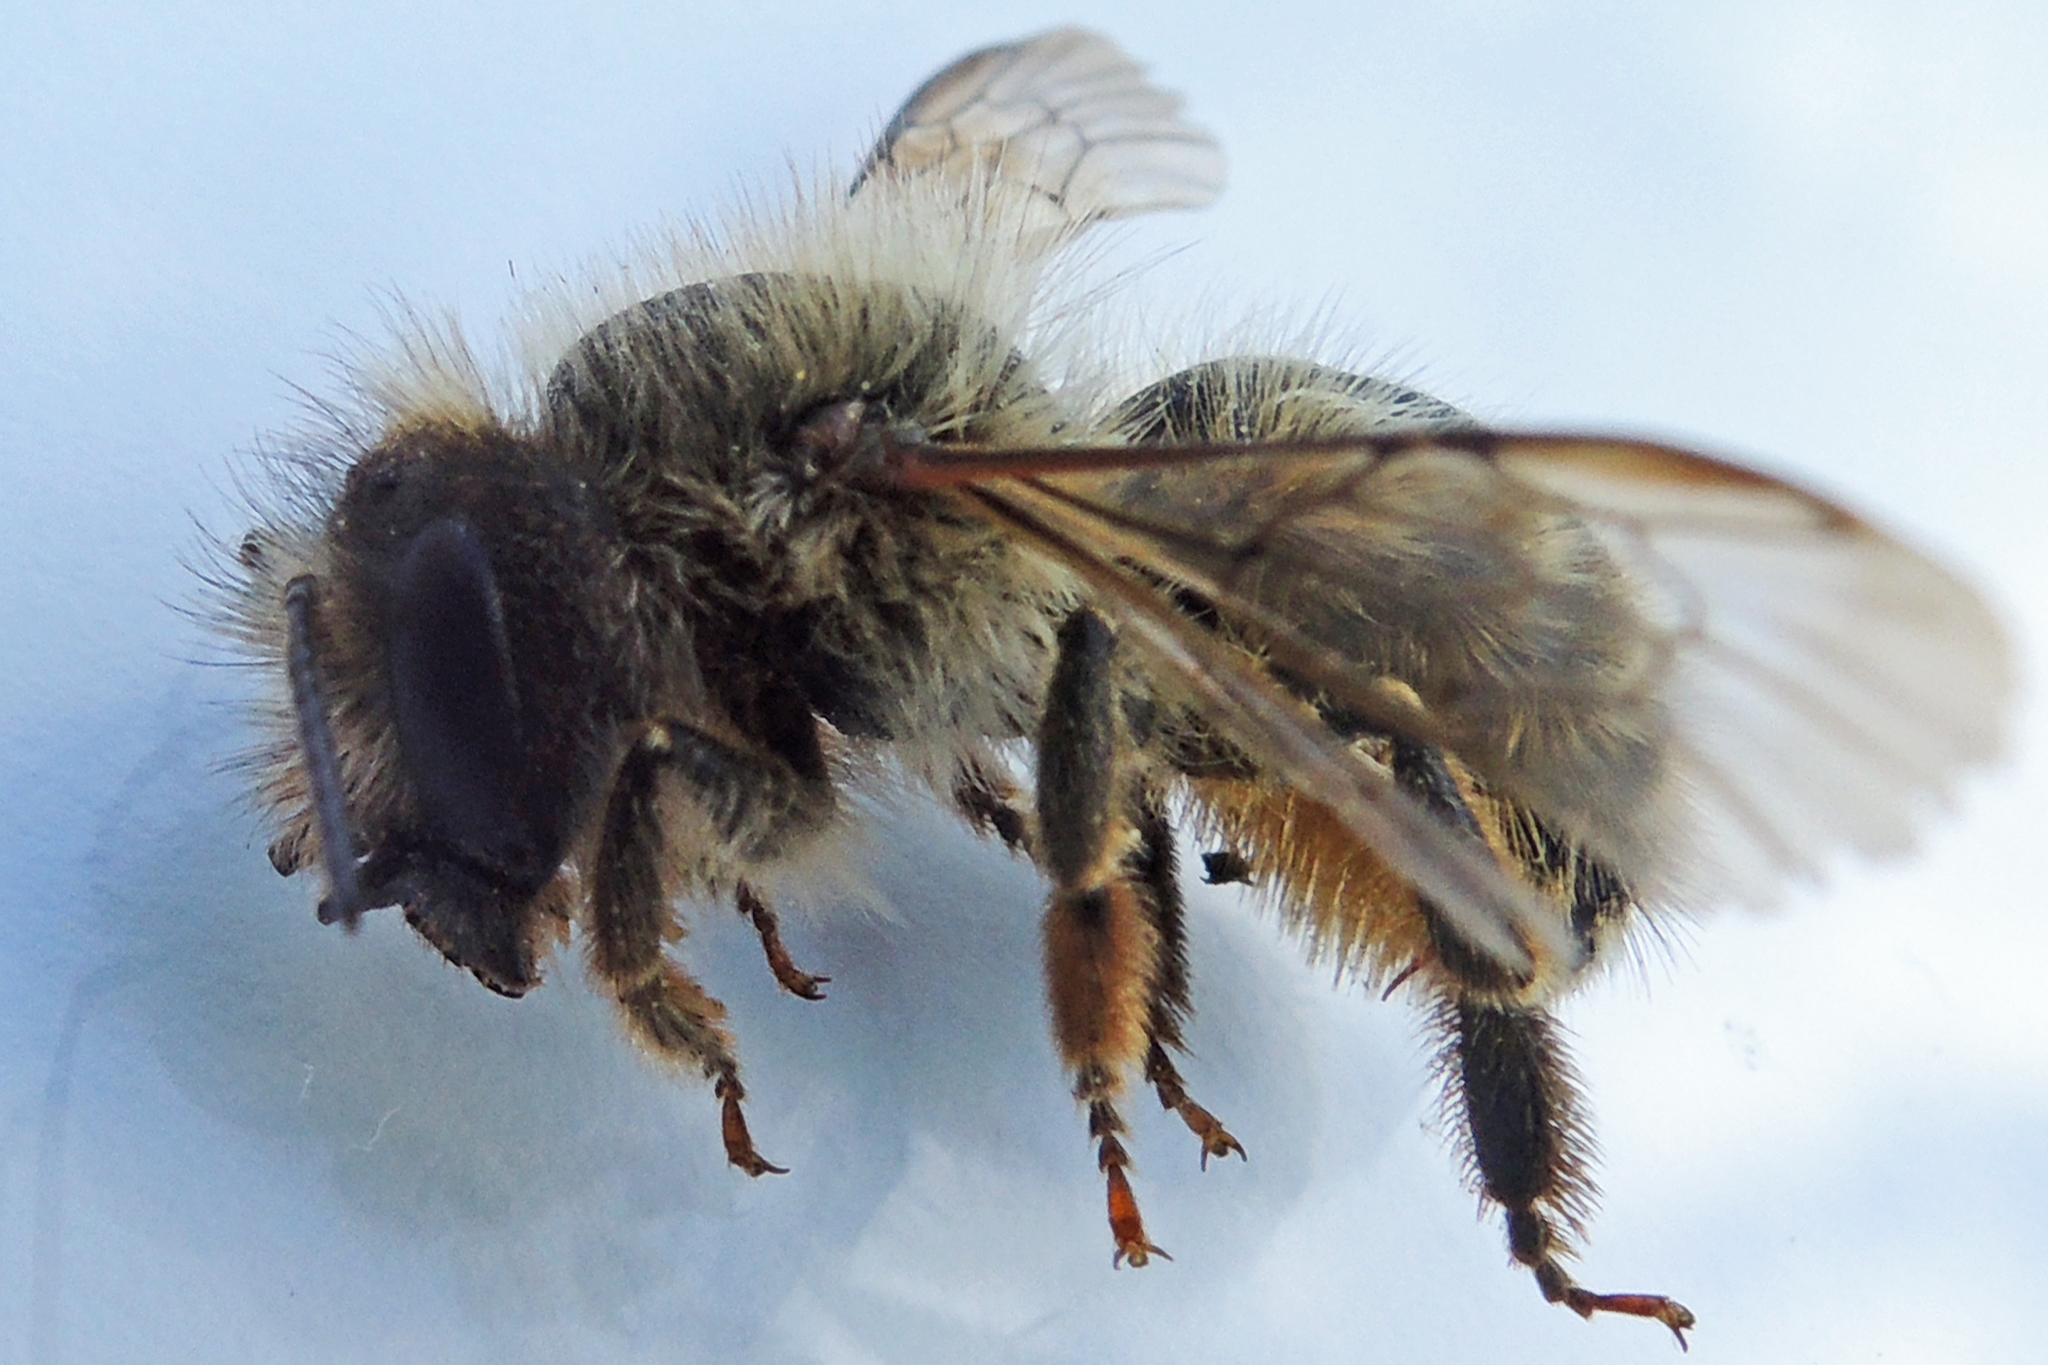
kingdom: Animalia
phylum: Arthropoda
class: Insecta
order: Hymenoptera
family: Megachilidae
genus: Osmia
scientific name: Osmia cornifrons
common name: Horn-faced bee
